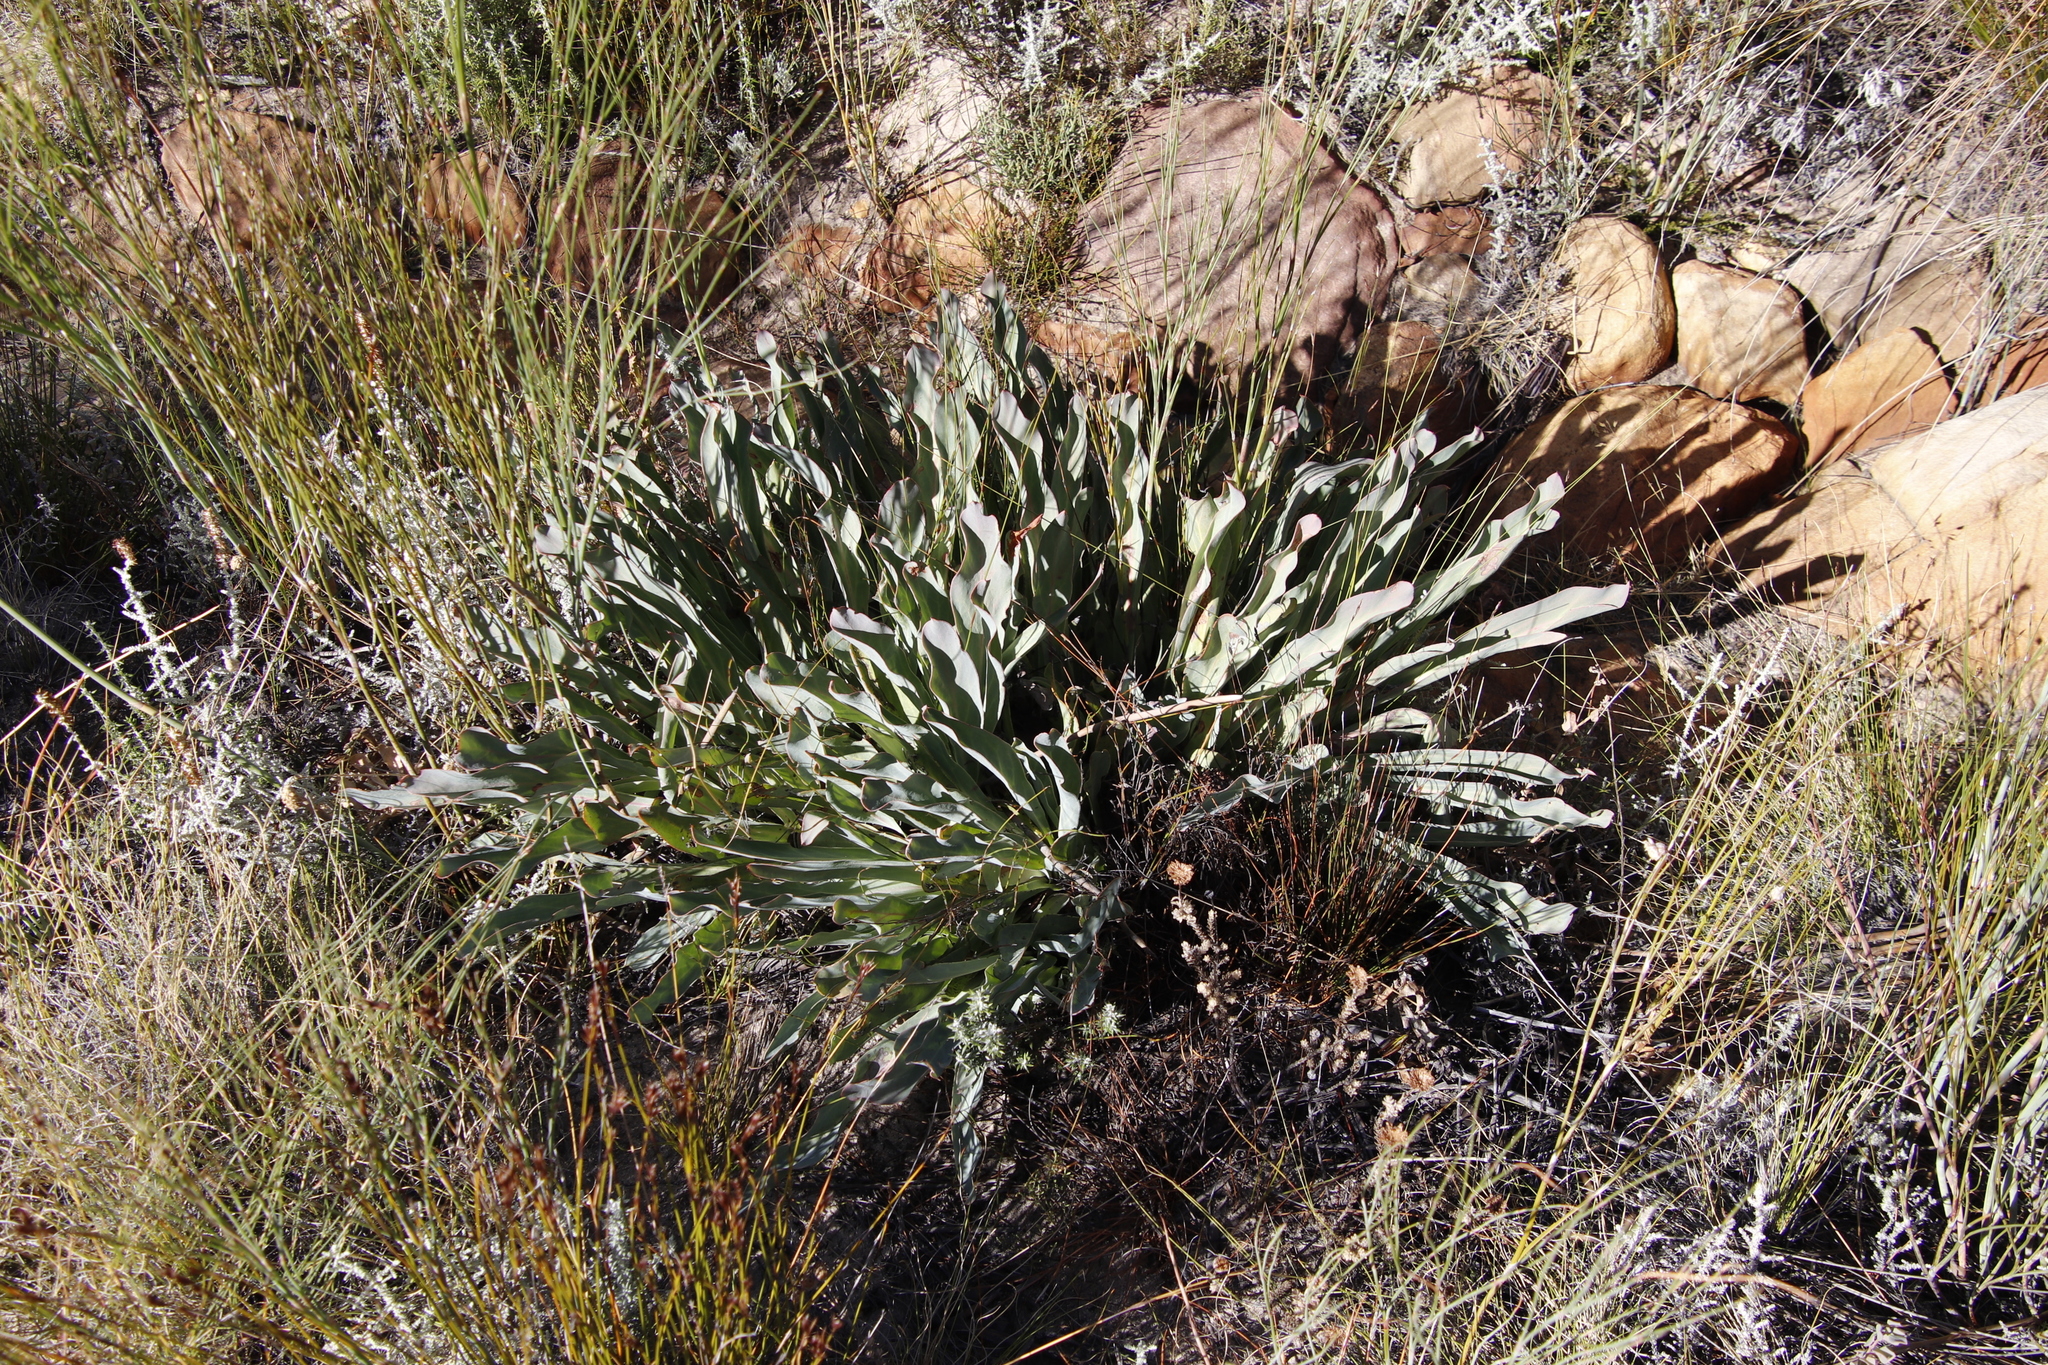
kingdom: Plantae
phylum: Tracheophyta
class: Magnoliopsida
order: Proteales
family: Proteaceae
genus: Protea
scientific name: Protea laevis
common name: Smooth-leaf sugarbush
